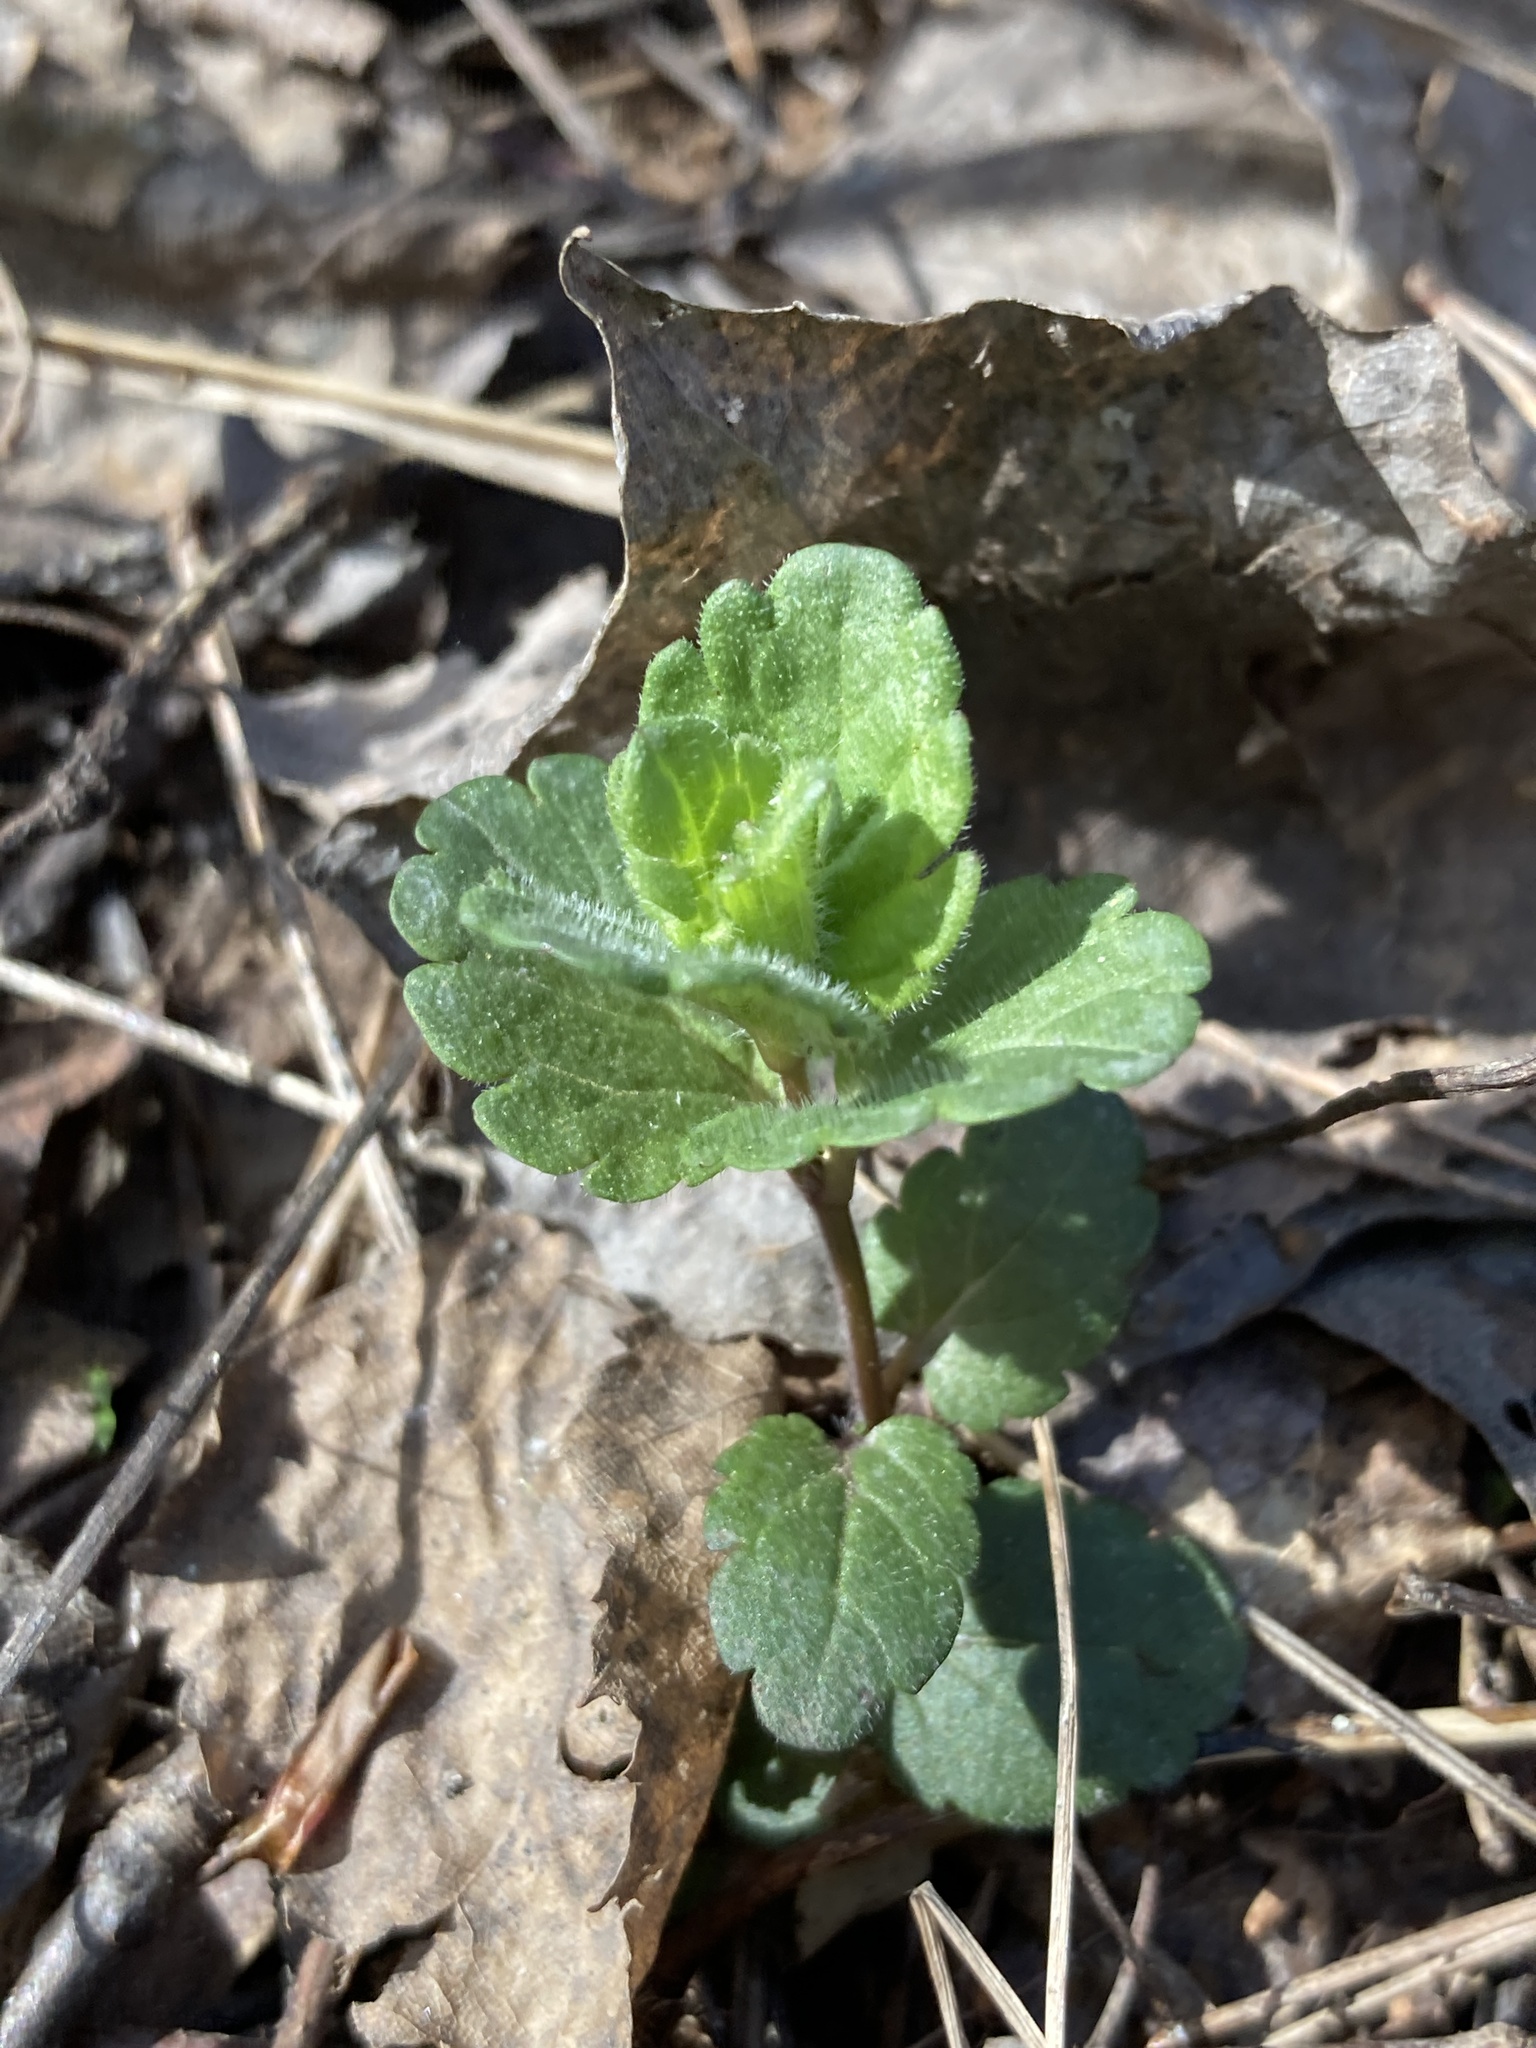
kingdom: Plantae
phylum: Tracheophyta
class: Magnoliopsida
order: Lamiales
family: Plantaginaceae
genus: Veronica
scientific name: Veronica chamaedrys
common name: Germander speedwell
